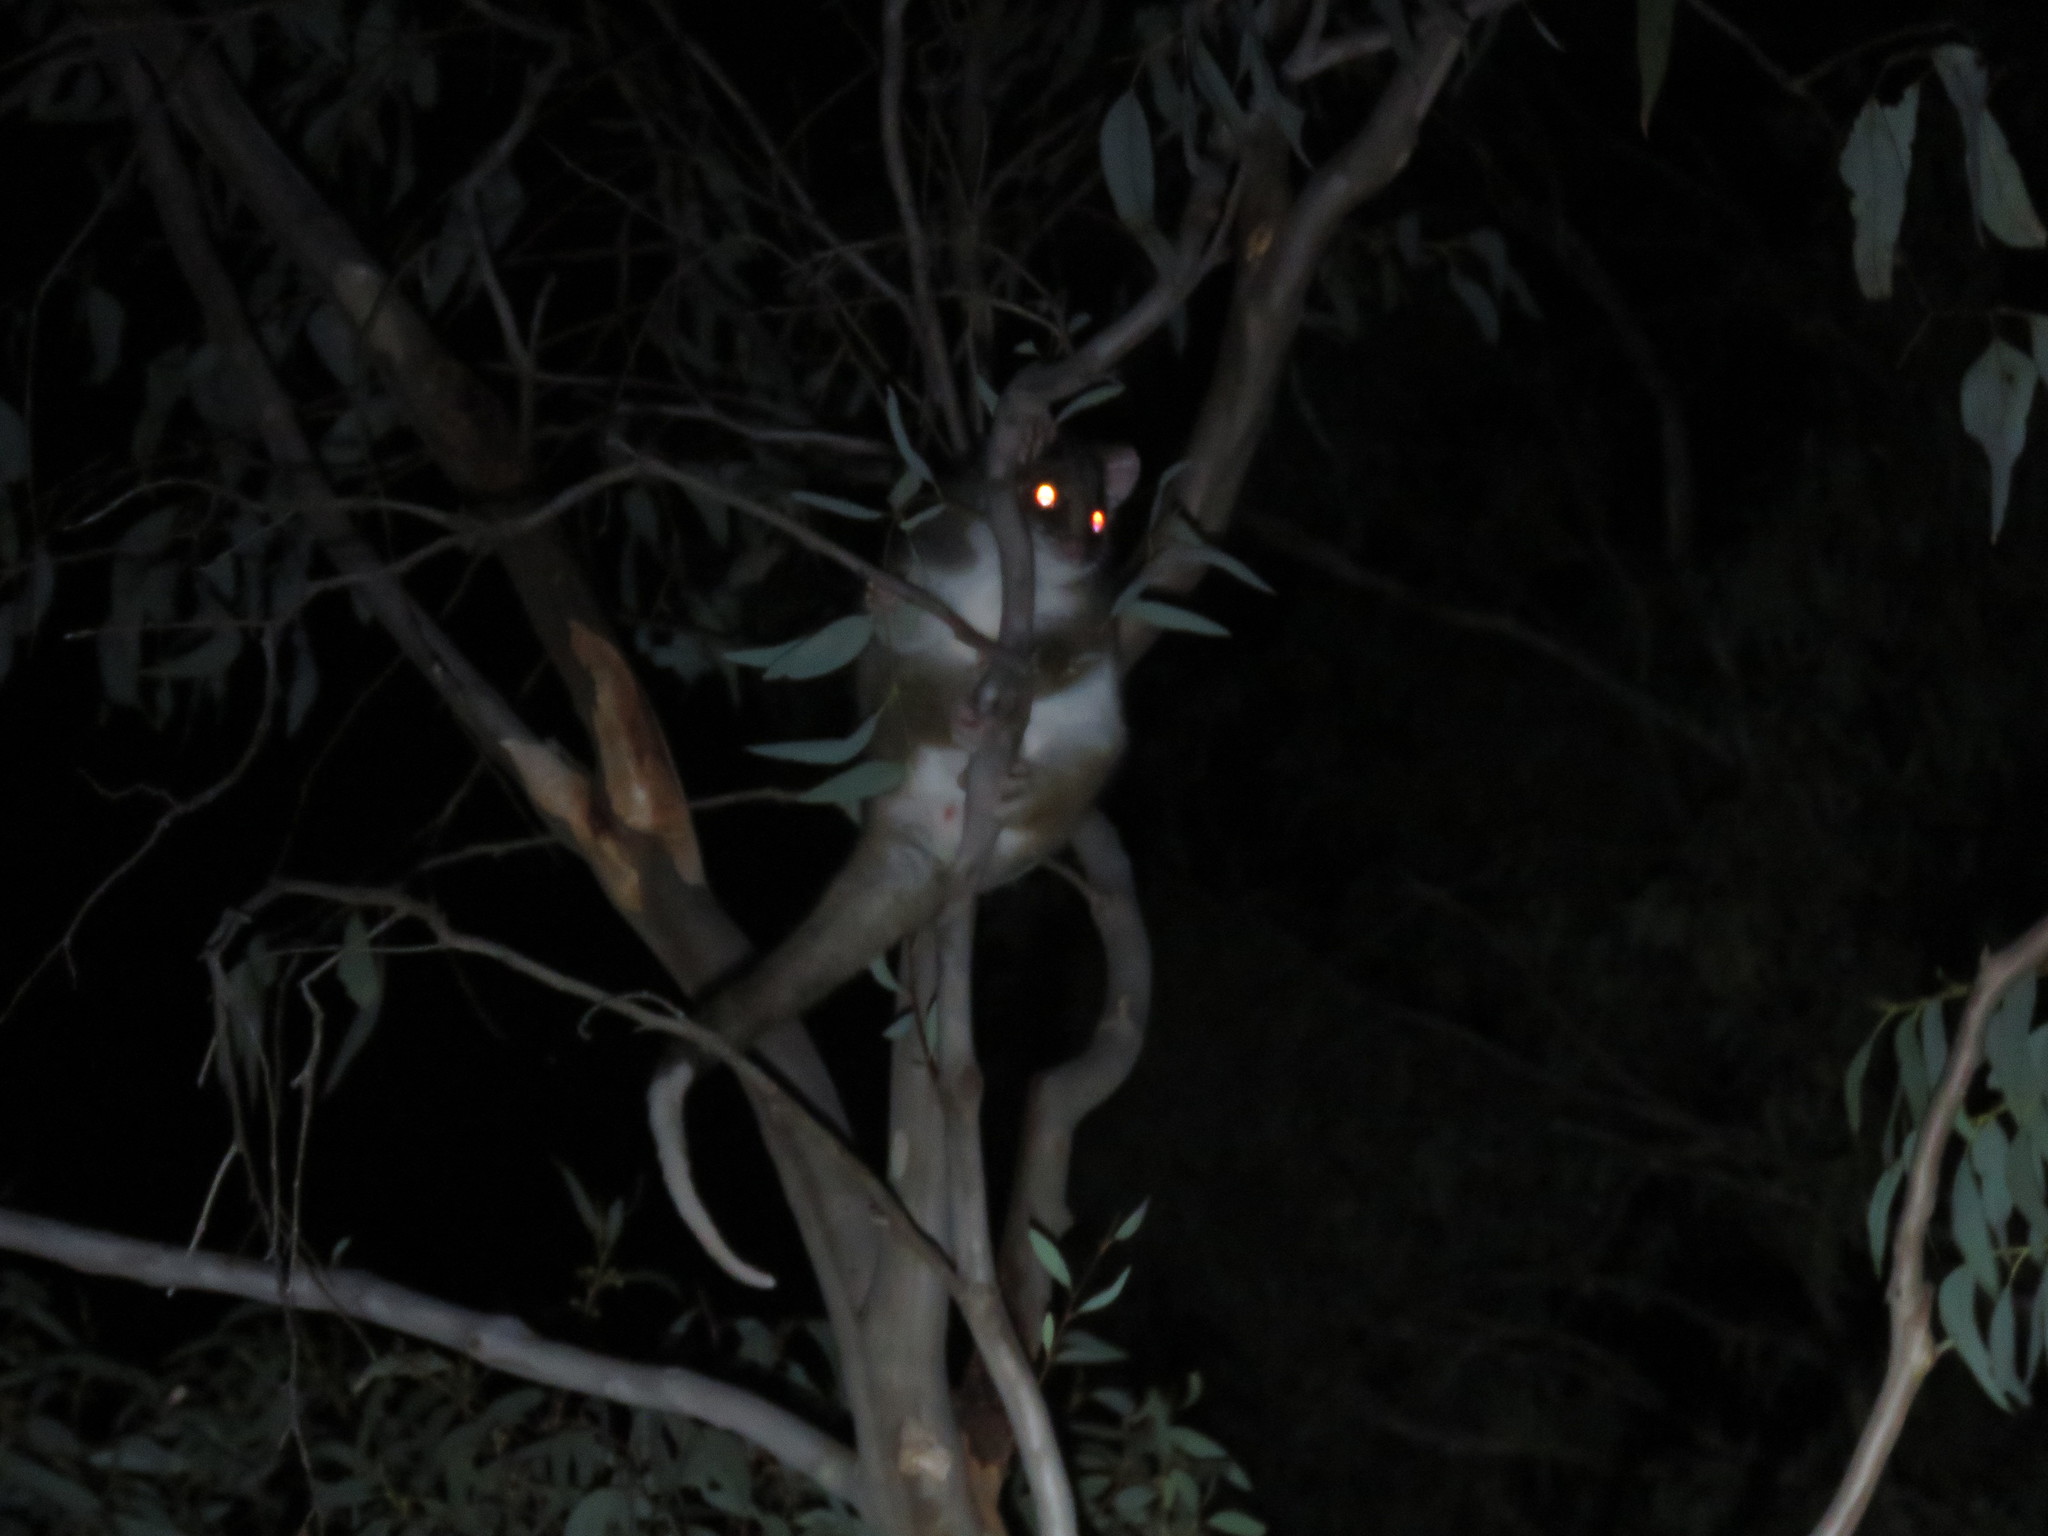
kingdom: Animalia
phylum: Chordata
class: Mammalia
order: Diprotodontia
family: Pseudocheiridae
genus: Pseudocheirus
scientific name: Pseudocheirus peregrinus
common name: Common ringtail possum
